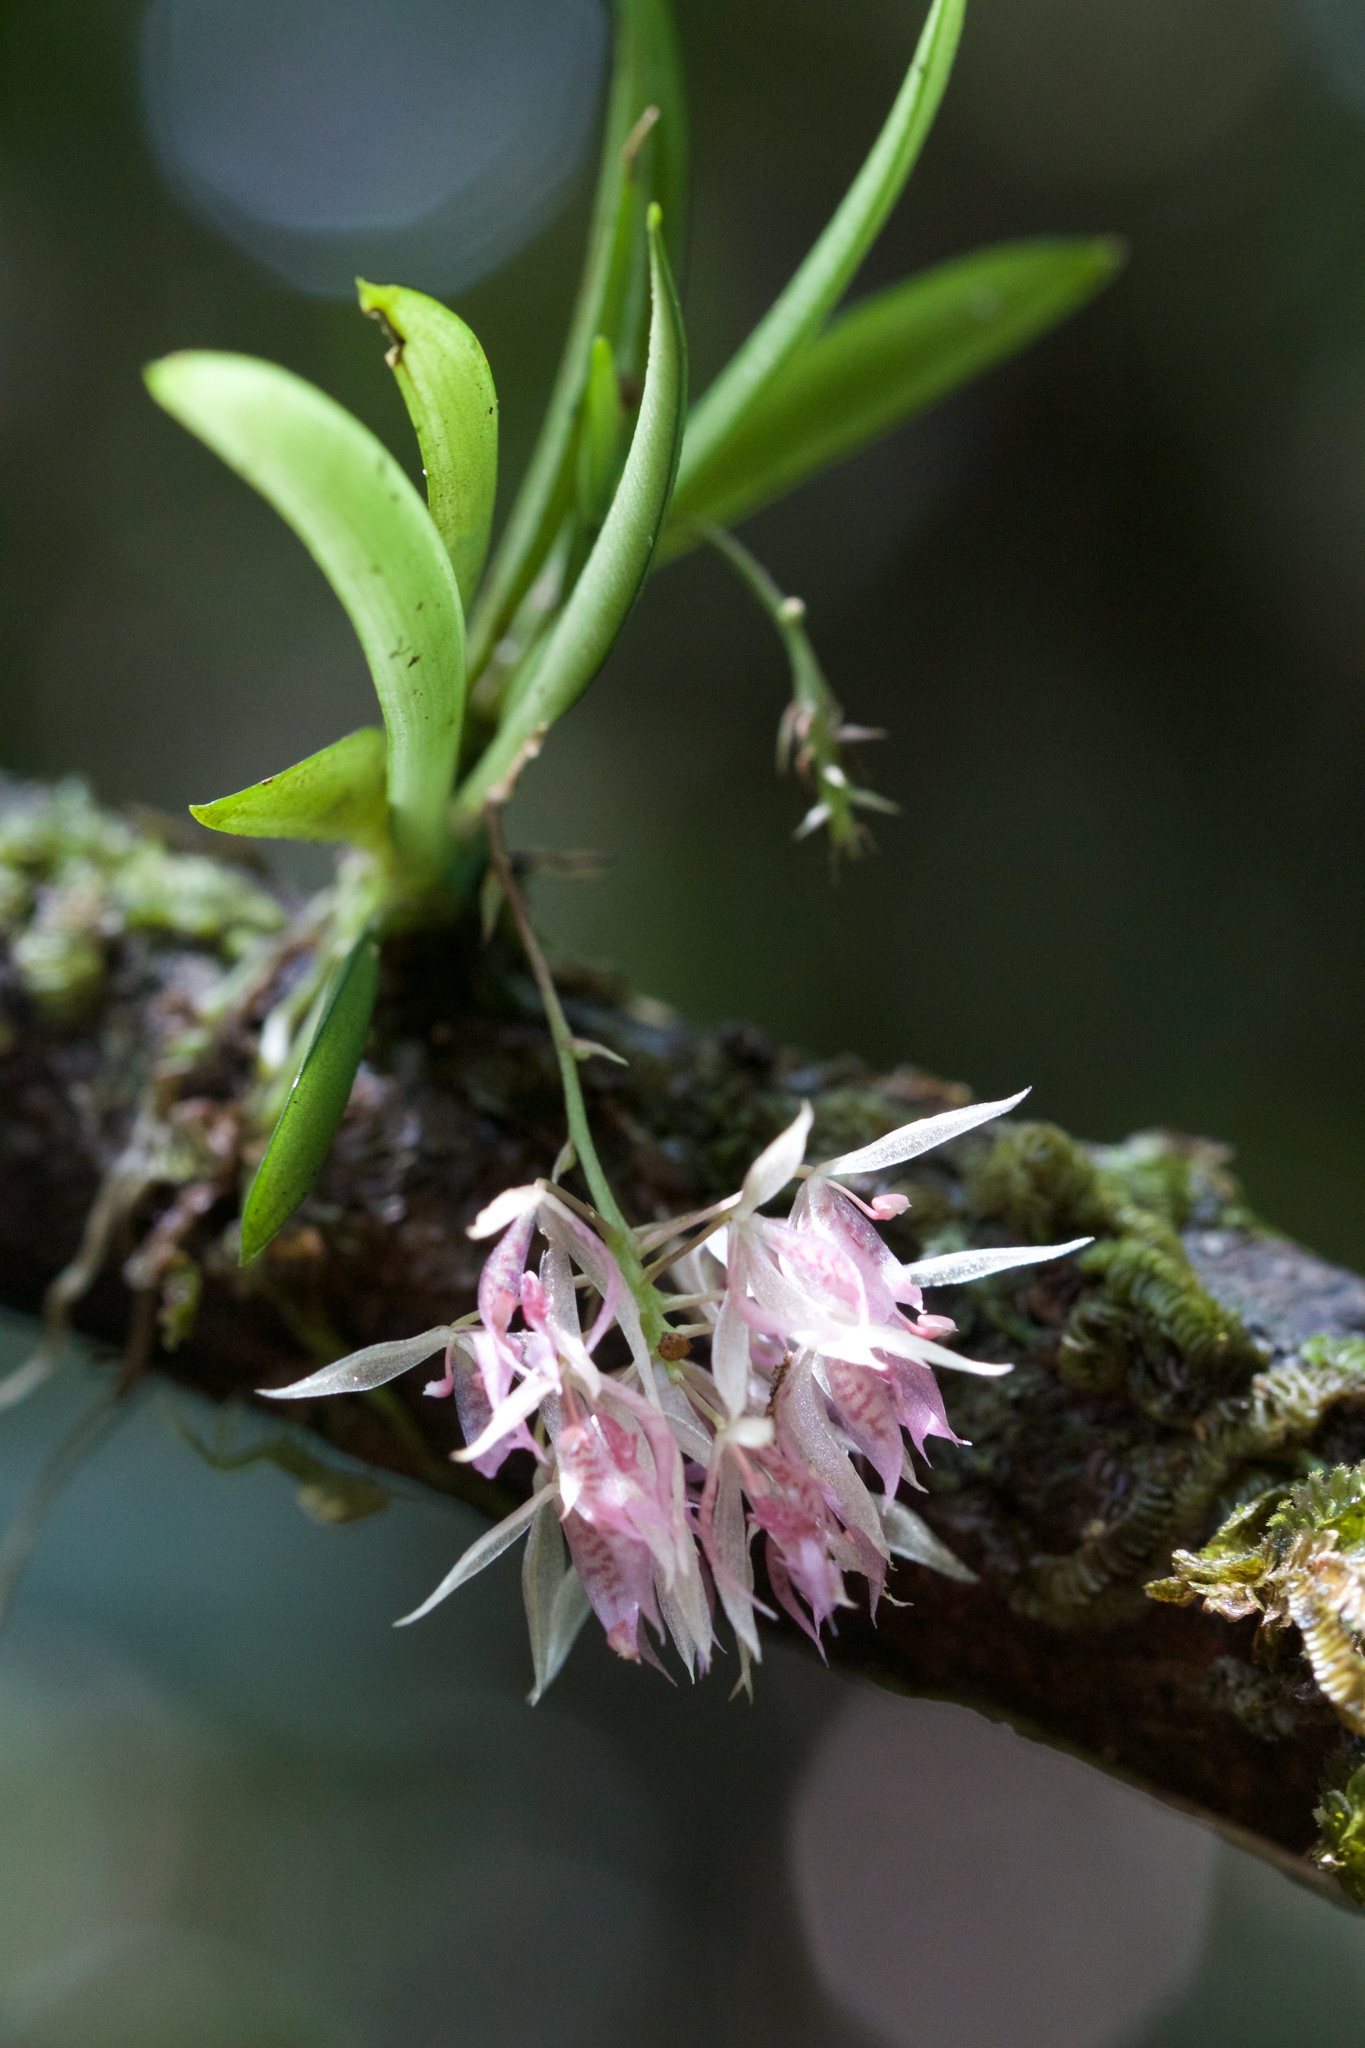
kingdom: Plantae
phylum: Tracheophyta
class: Liliopsida
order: Asparagales
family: Orchidaceae
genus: Macroclinium
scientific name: Macroclinium lineare
